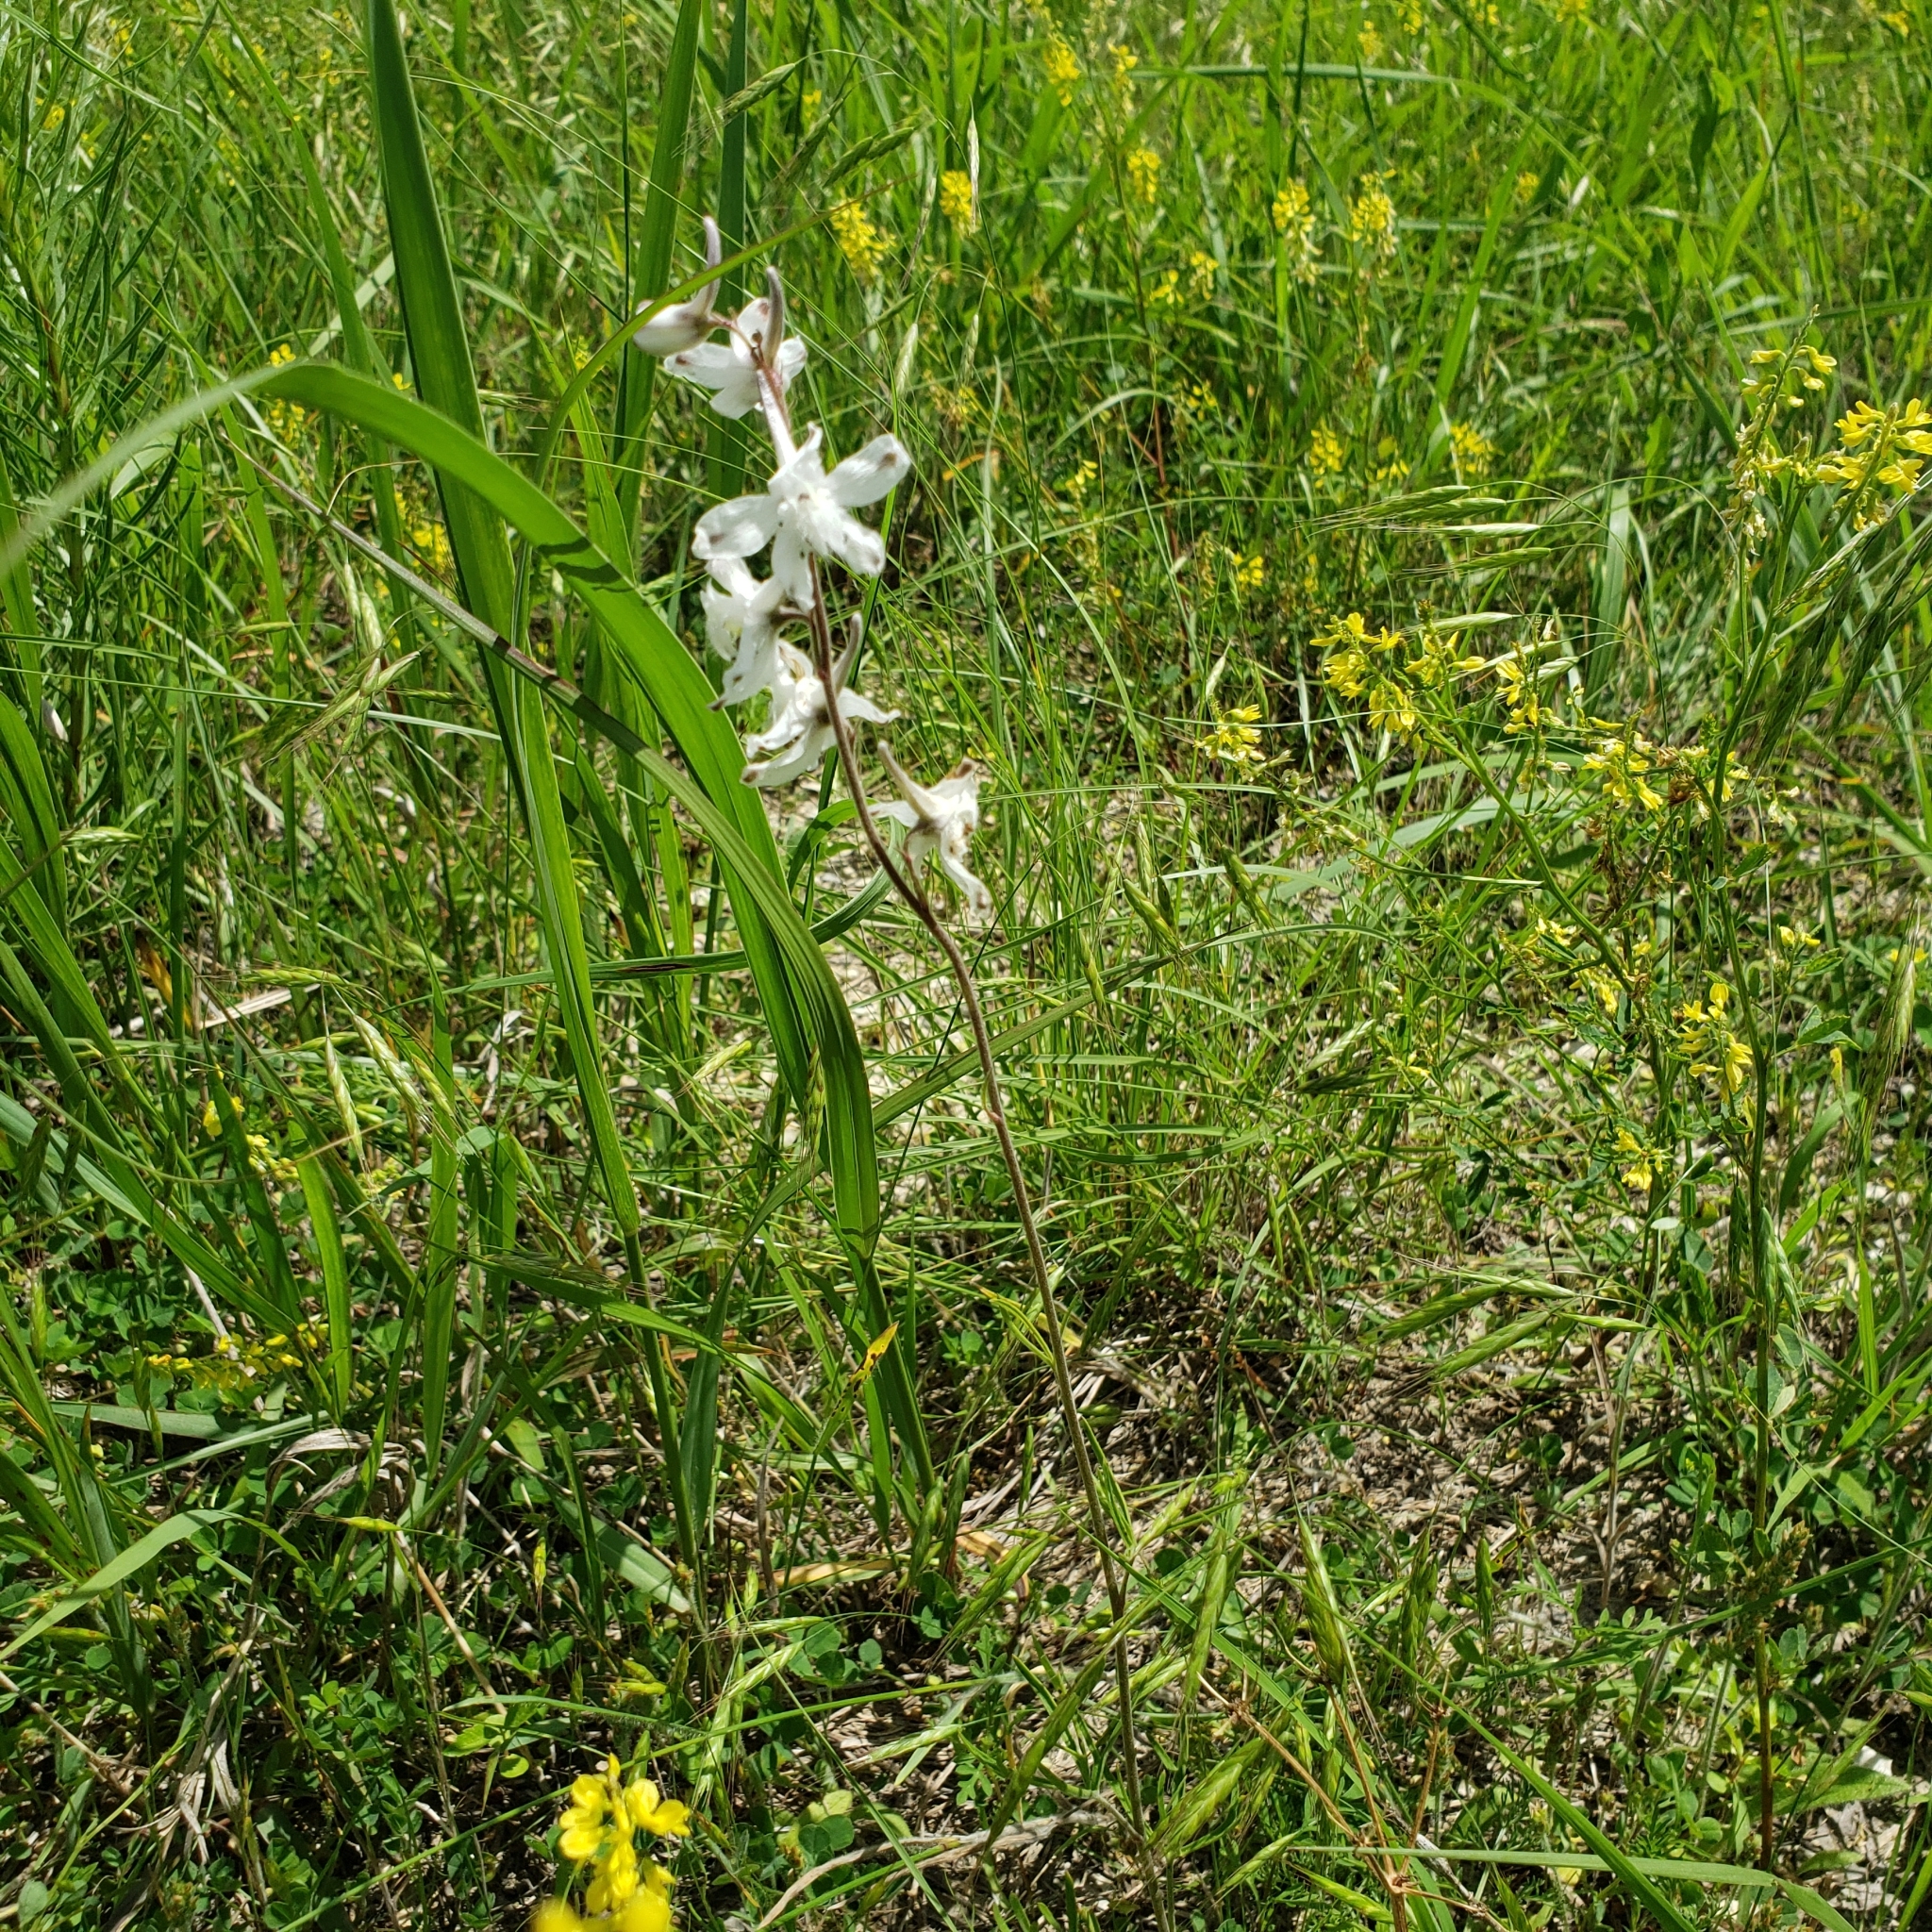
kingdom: Plantae
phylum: Tracheophyta
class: Magnoliopsida
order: Ranunculales
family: Ranunculaceae
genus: Delphinium
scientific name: Delphinium carolinianum
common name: Carolina larkspur
